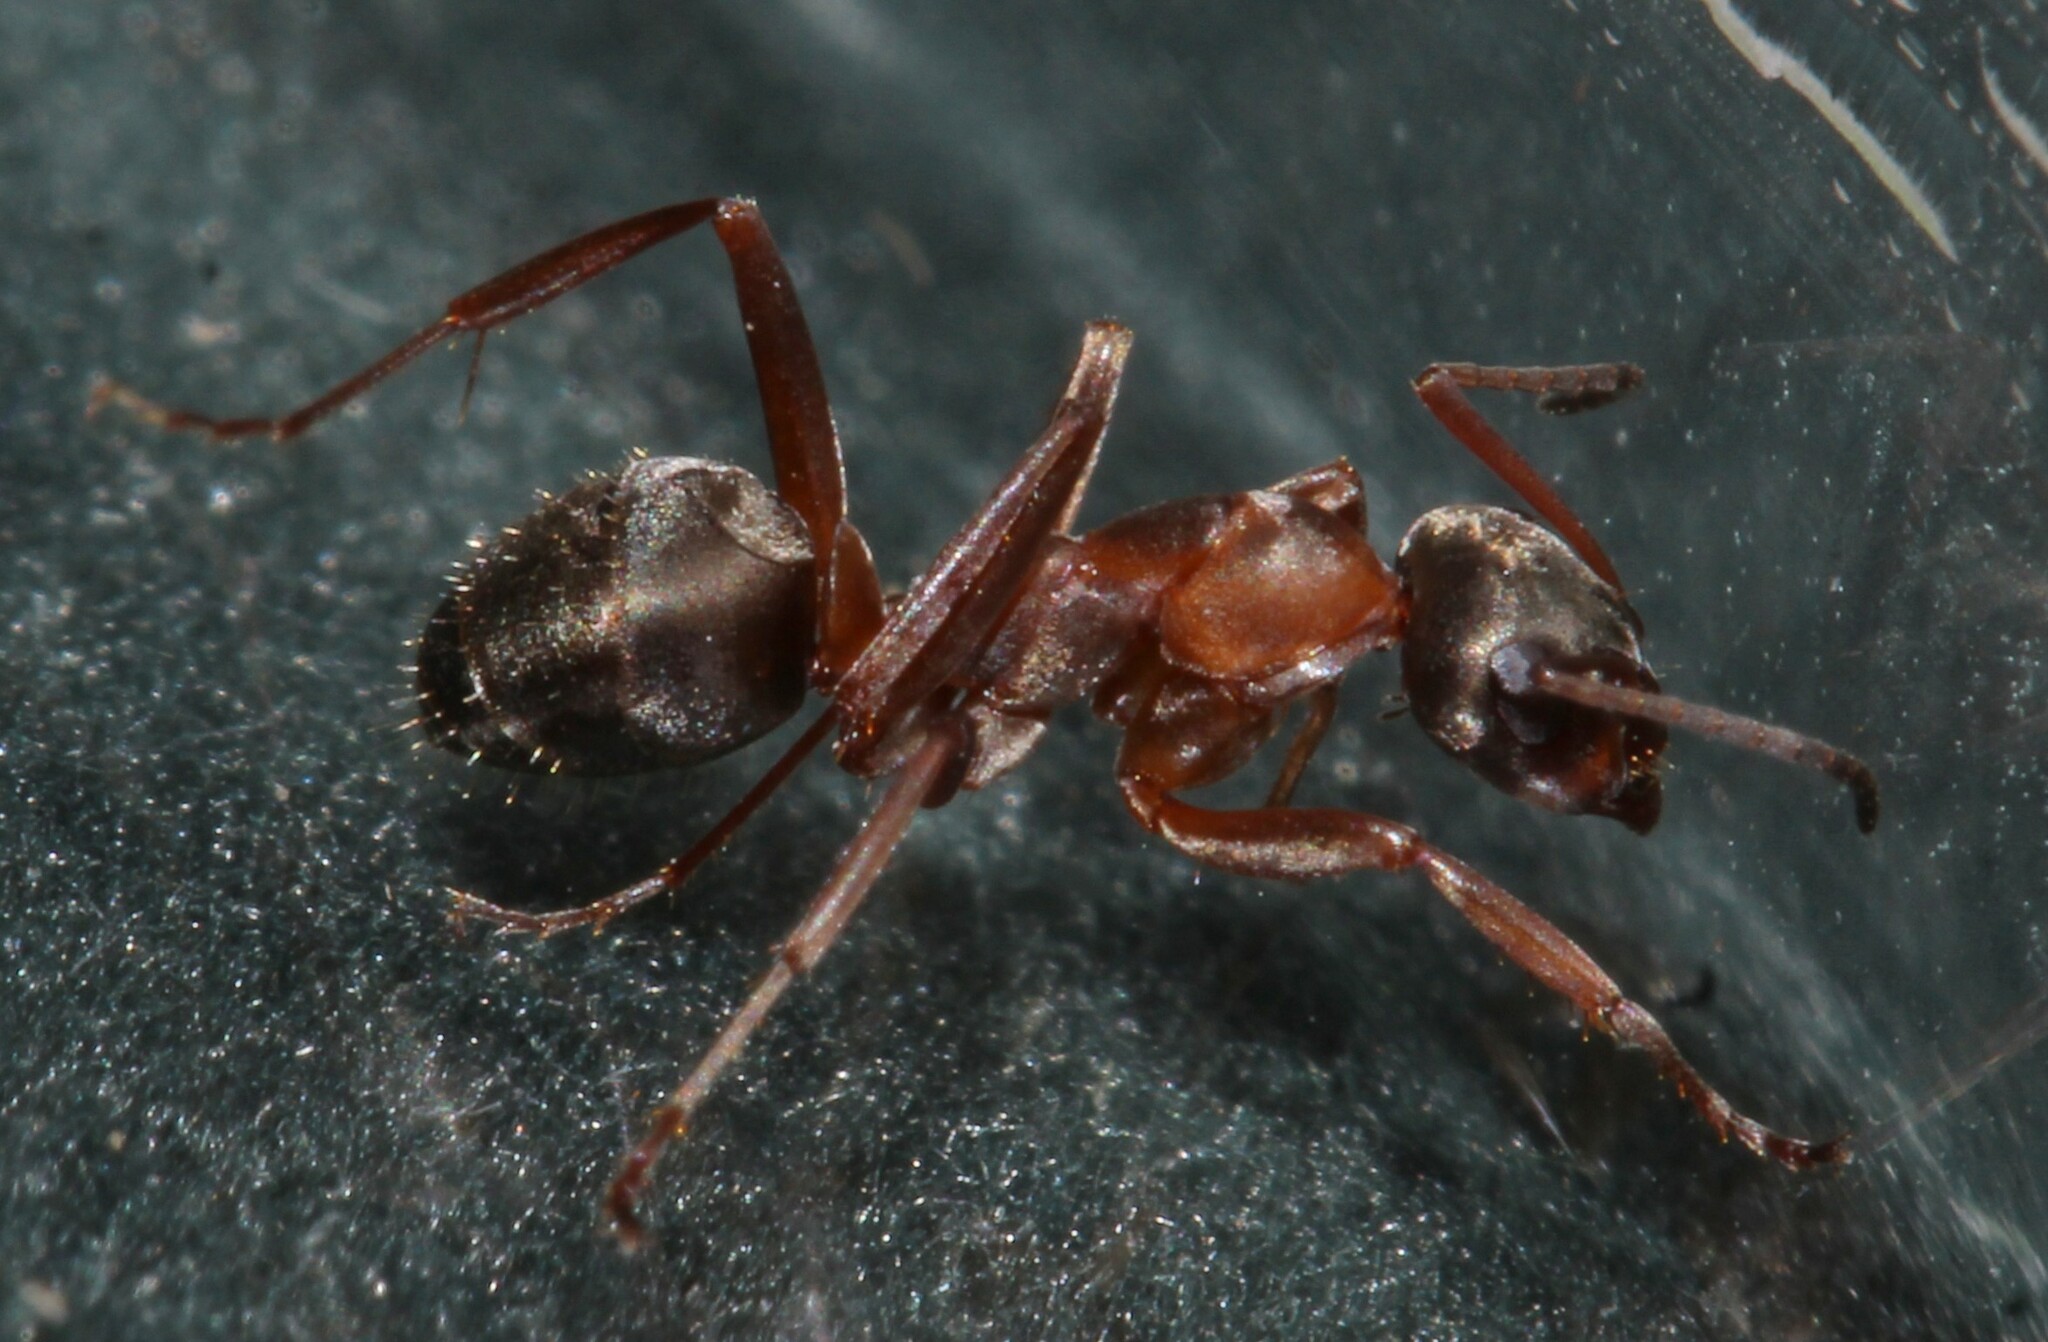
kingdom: Animalia
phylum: Arthropoda
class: Insecta
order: Hymenoptera
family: Formicidae
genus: Formica
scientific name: Formica
